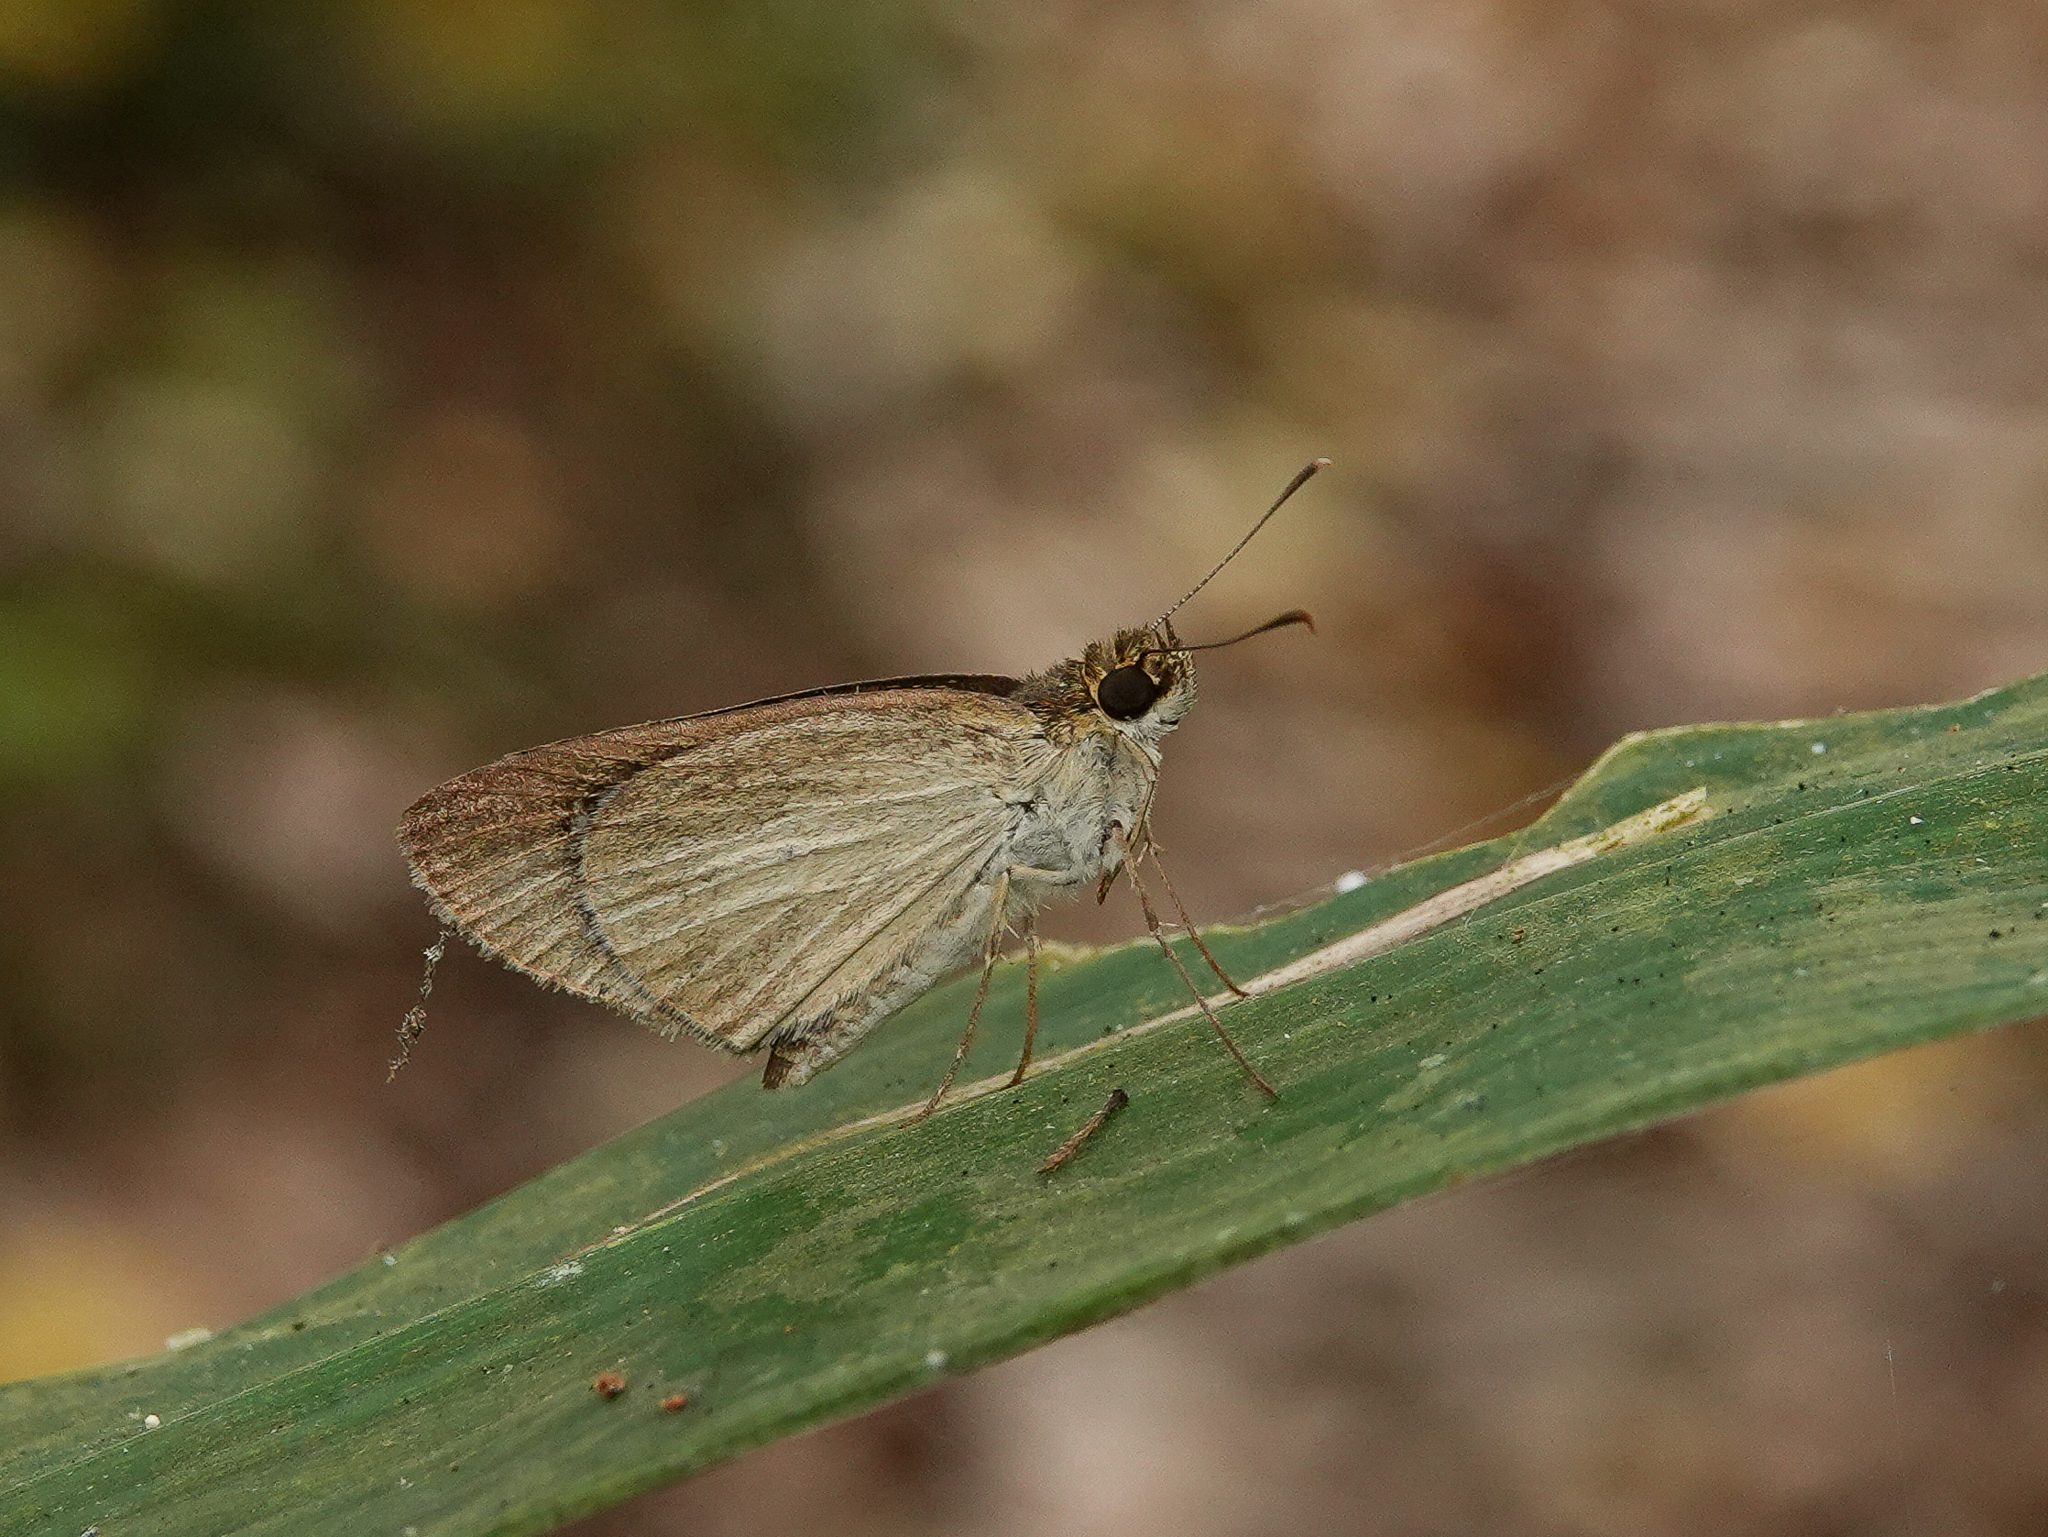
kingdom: Animalia
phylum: Arthropoda
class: Insecta
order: Lepidoptera
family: Hesperiidae
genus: Suada
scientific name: Suada swerga
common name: Grass bob
